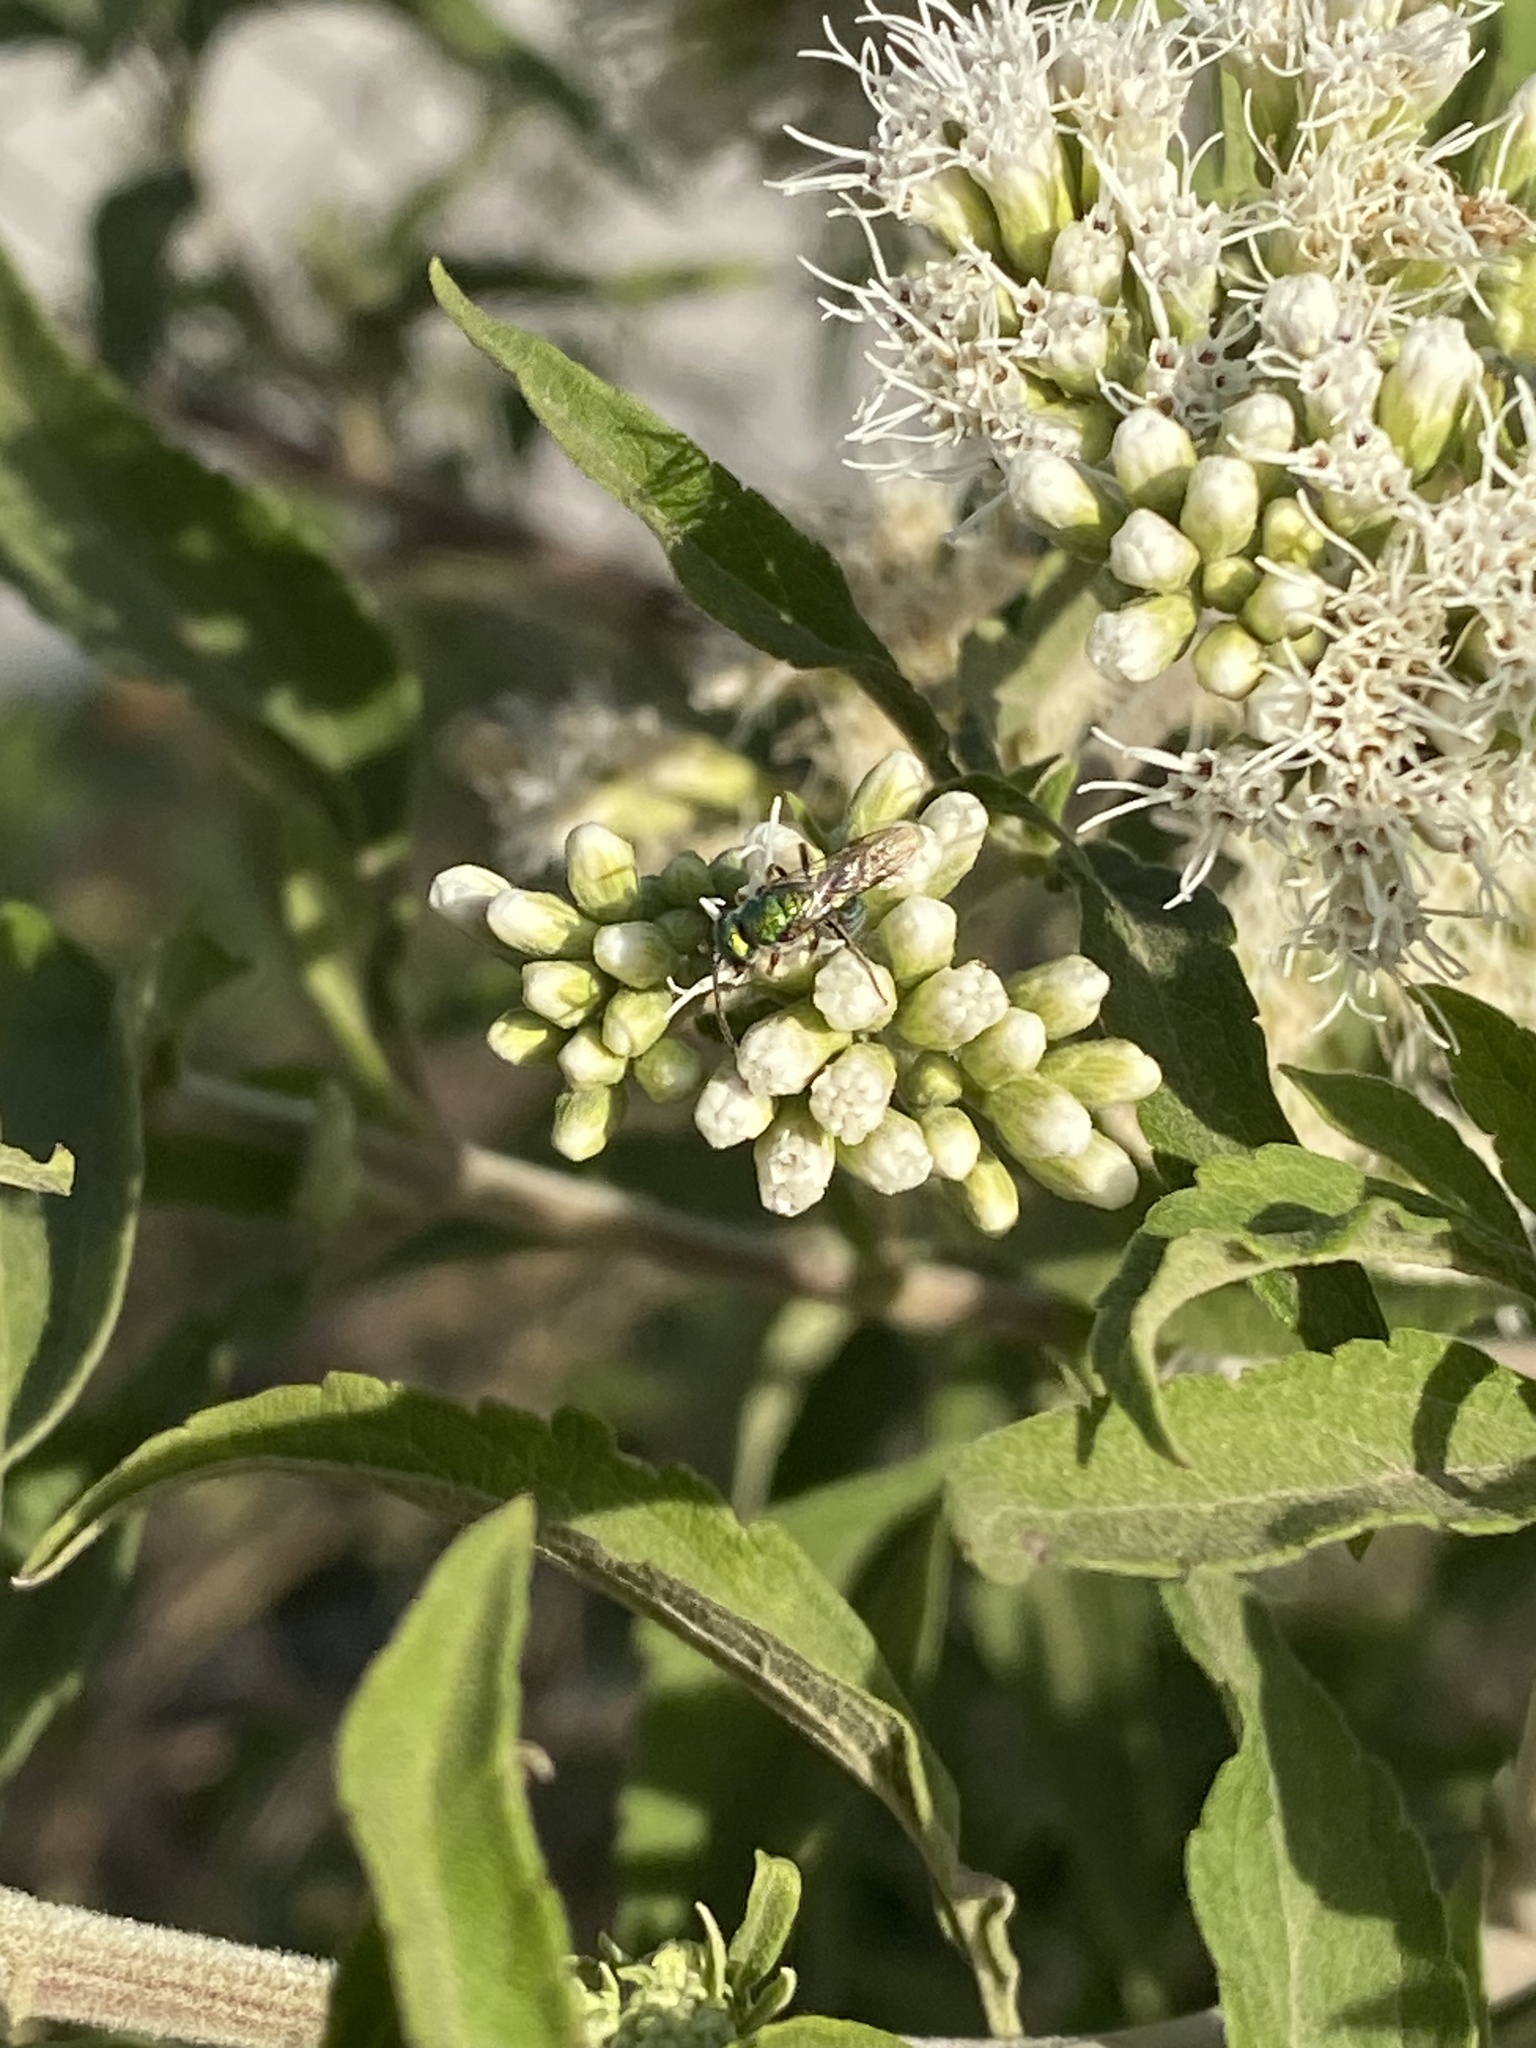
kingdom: Plantae
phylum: Tracheophyta
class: Magnoliopsida
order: Asterales
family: Asteraceae
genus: Austroeupatorium
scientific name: Austroeupatorium inulifolium
